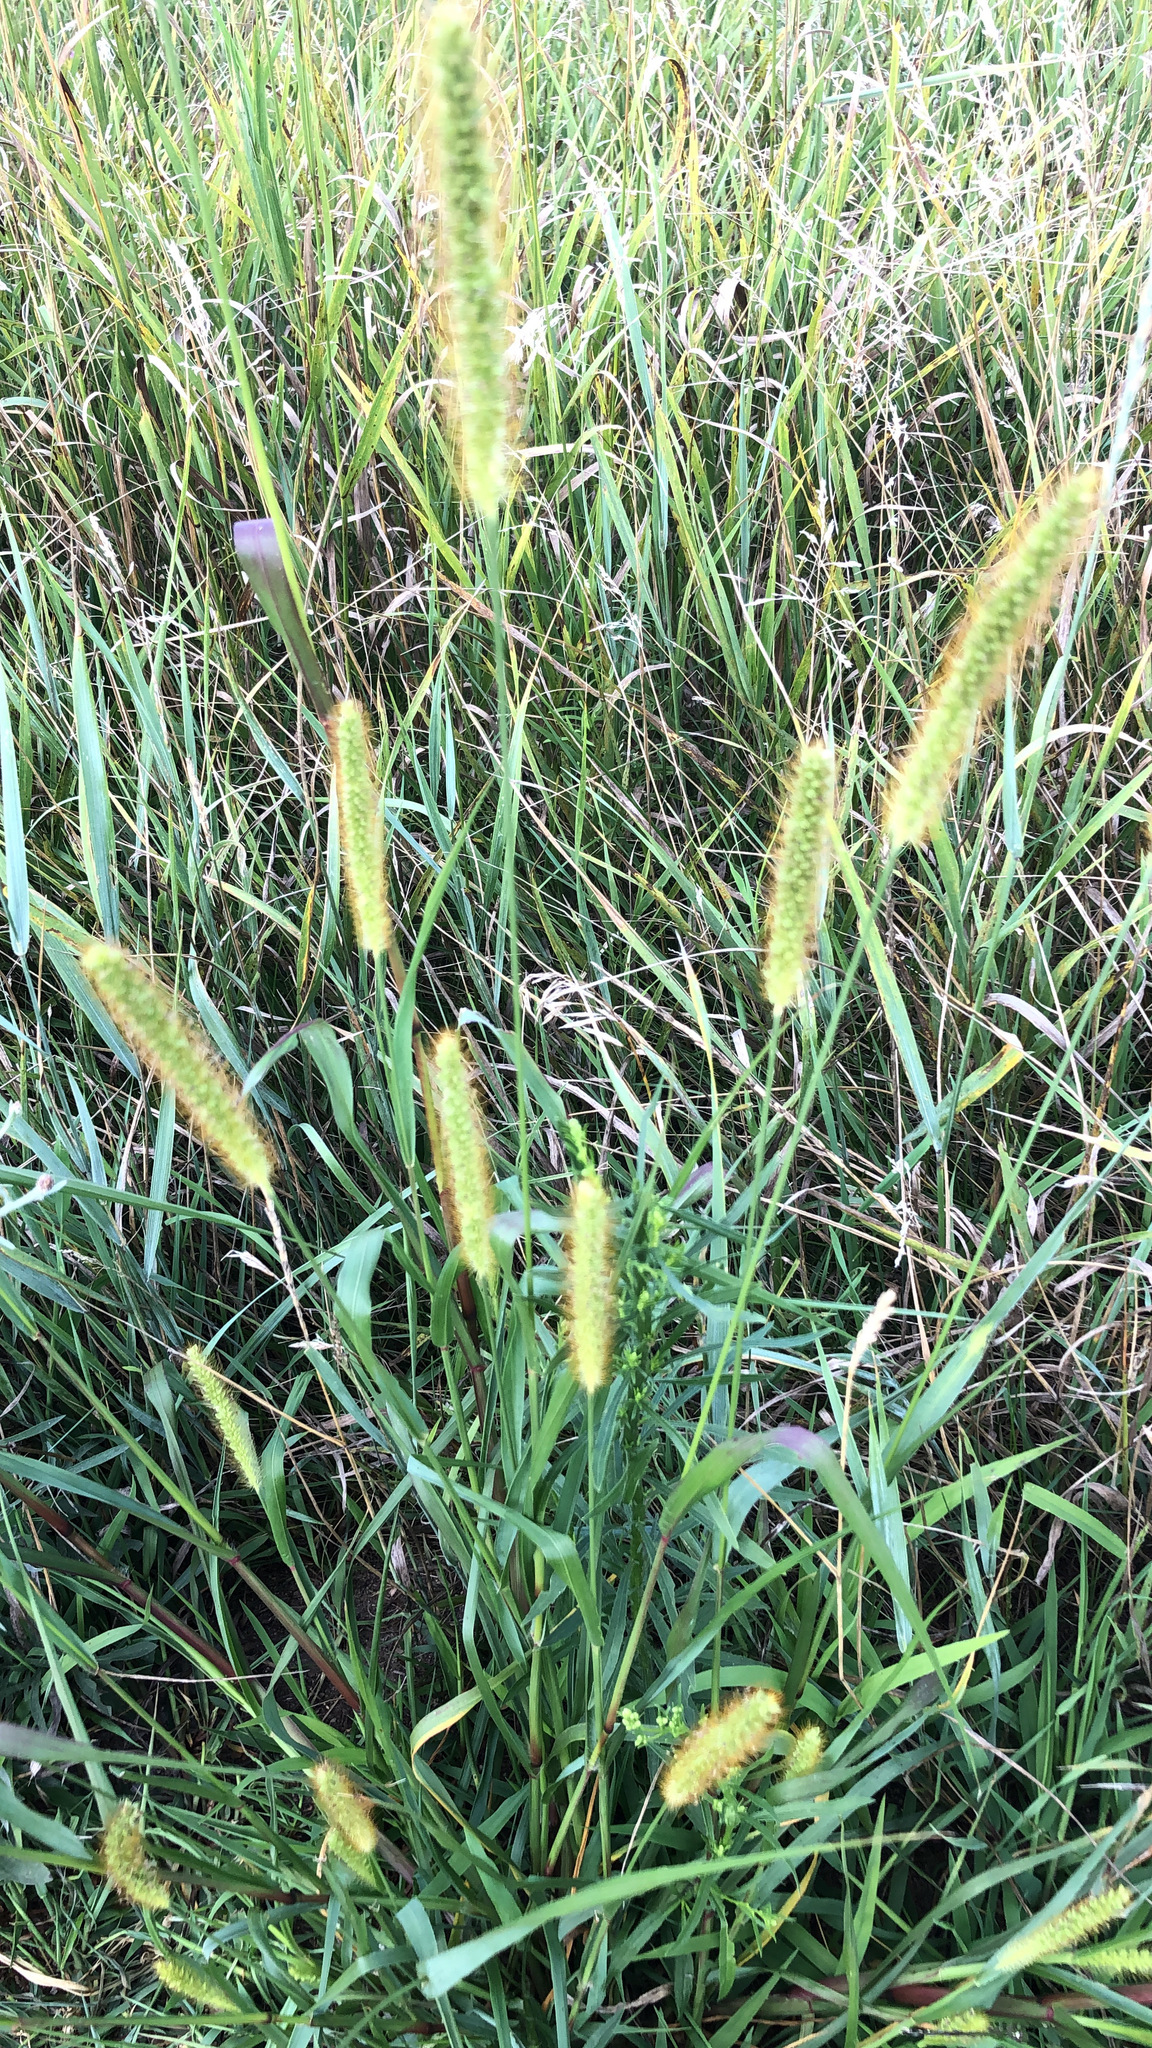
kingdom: Plantae
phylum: Tracheophyta
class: Liliopsida
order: Poales
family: Poaceae
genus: Setaria
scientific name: Setaria pumila
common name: Yellow bristle-grass
